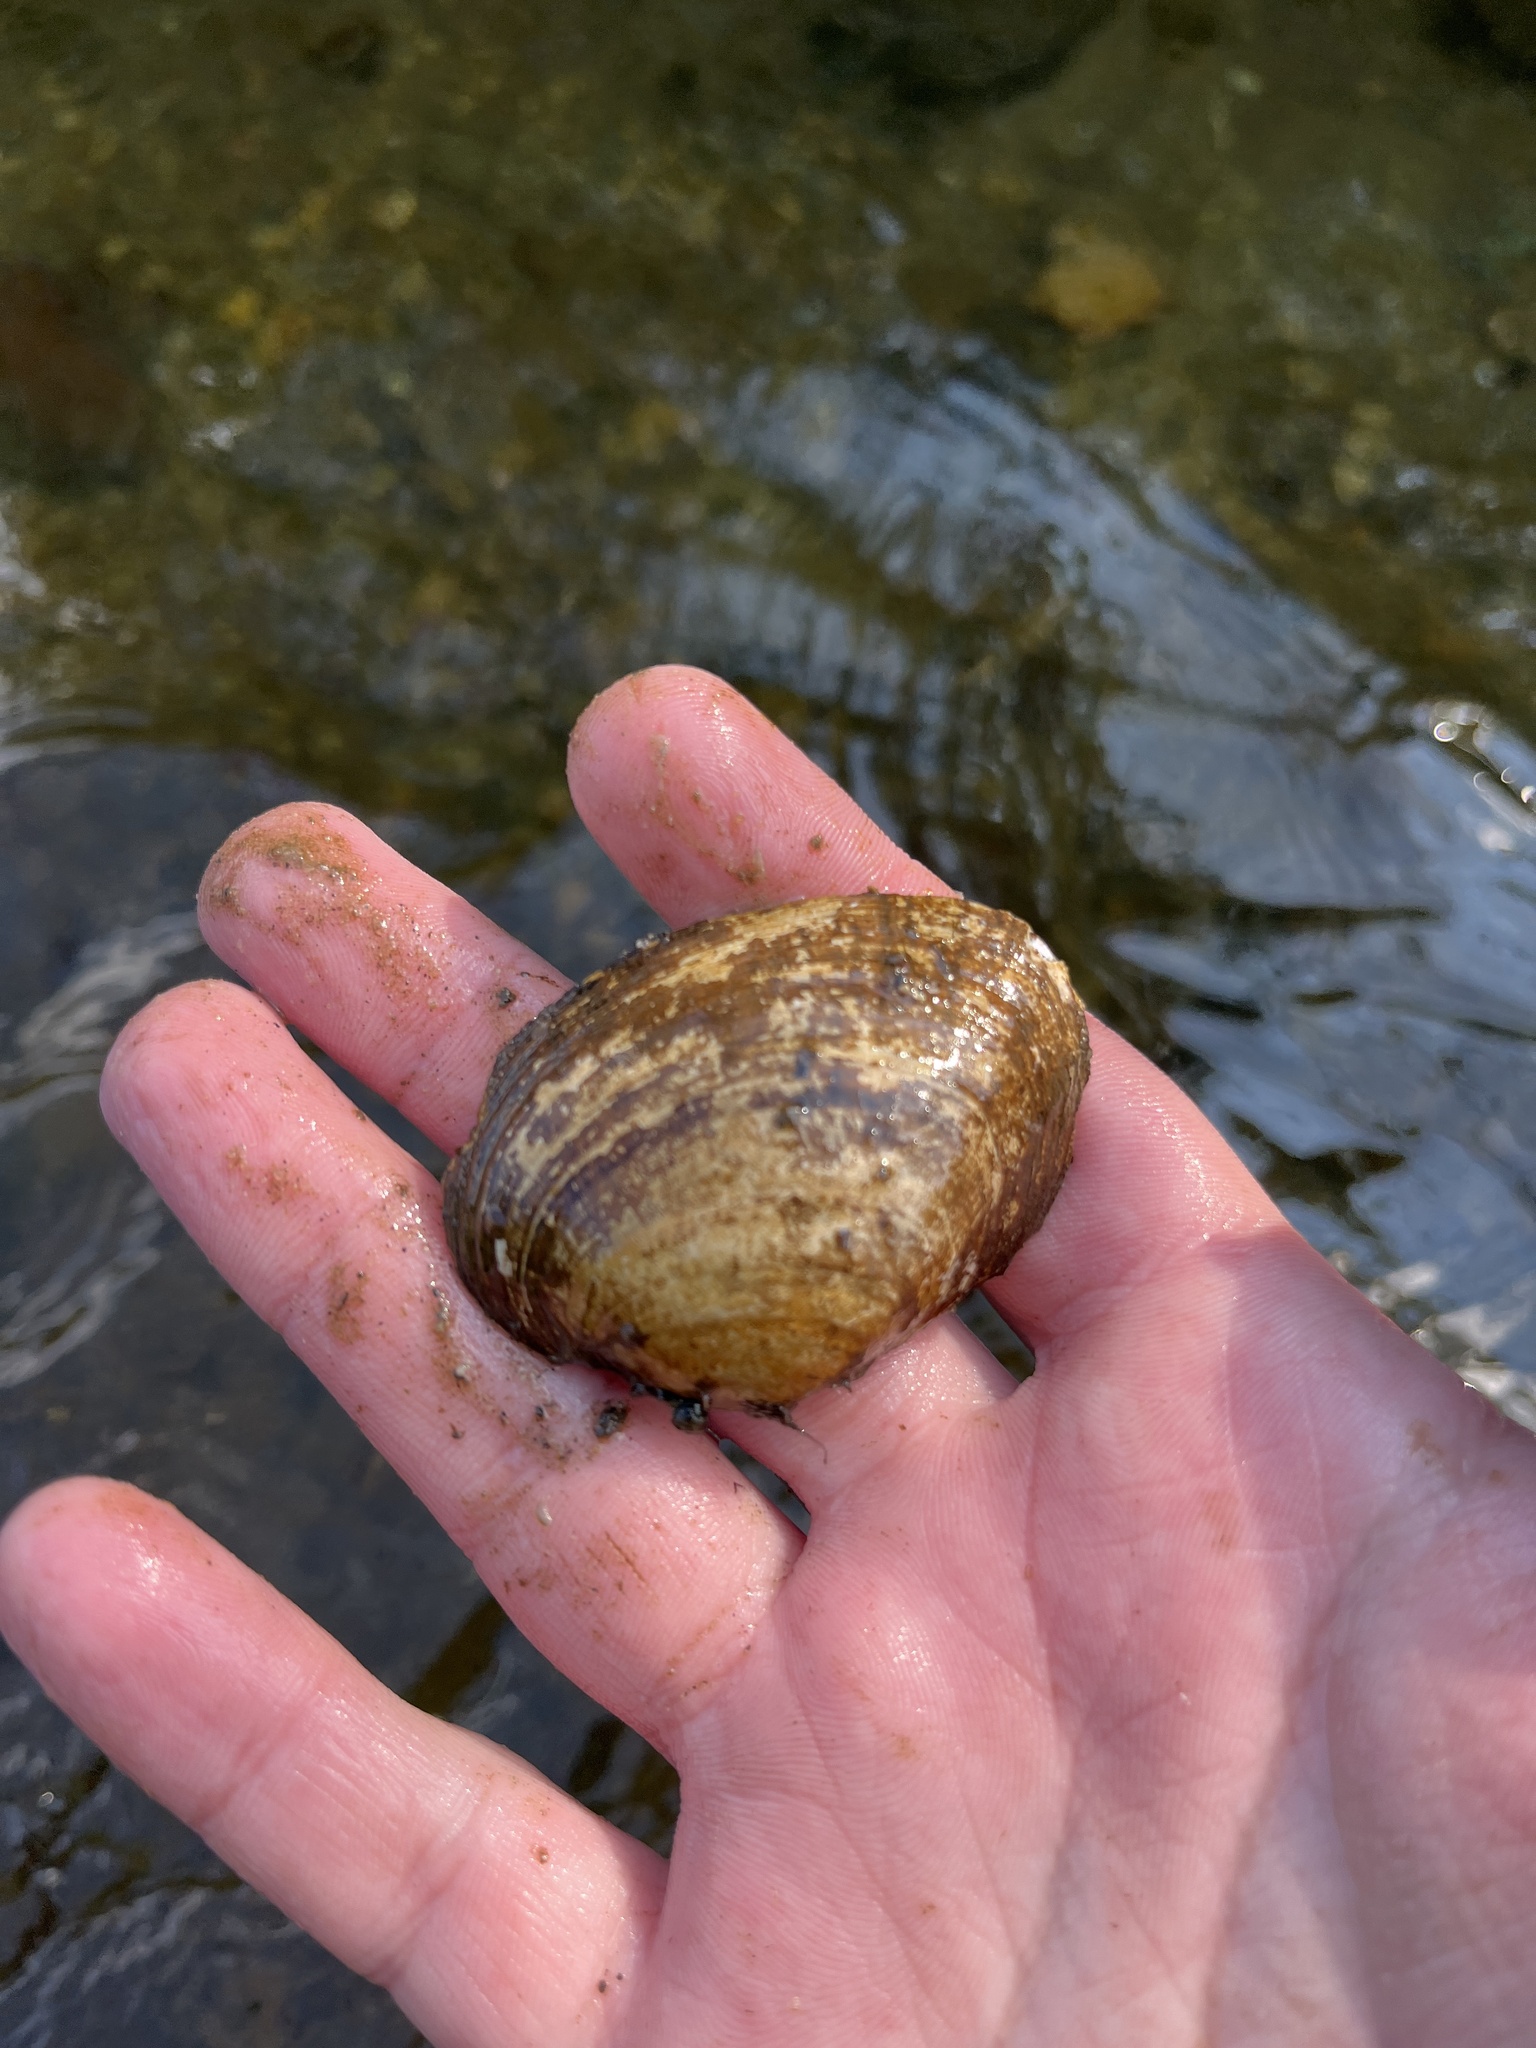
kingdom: Animalia
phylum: Mollusca
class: Bivalvia
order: Unionida
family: Unionidae
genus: Lampsilis
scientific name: Lampsilis fasciola
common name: Wavyrayed lampmussel
